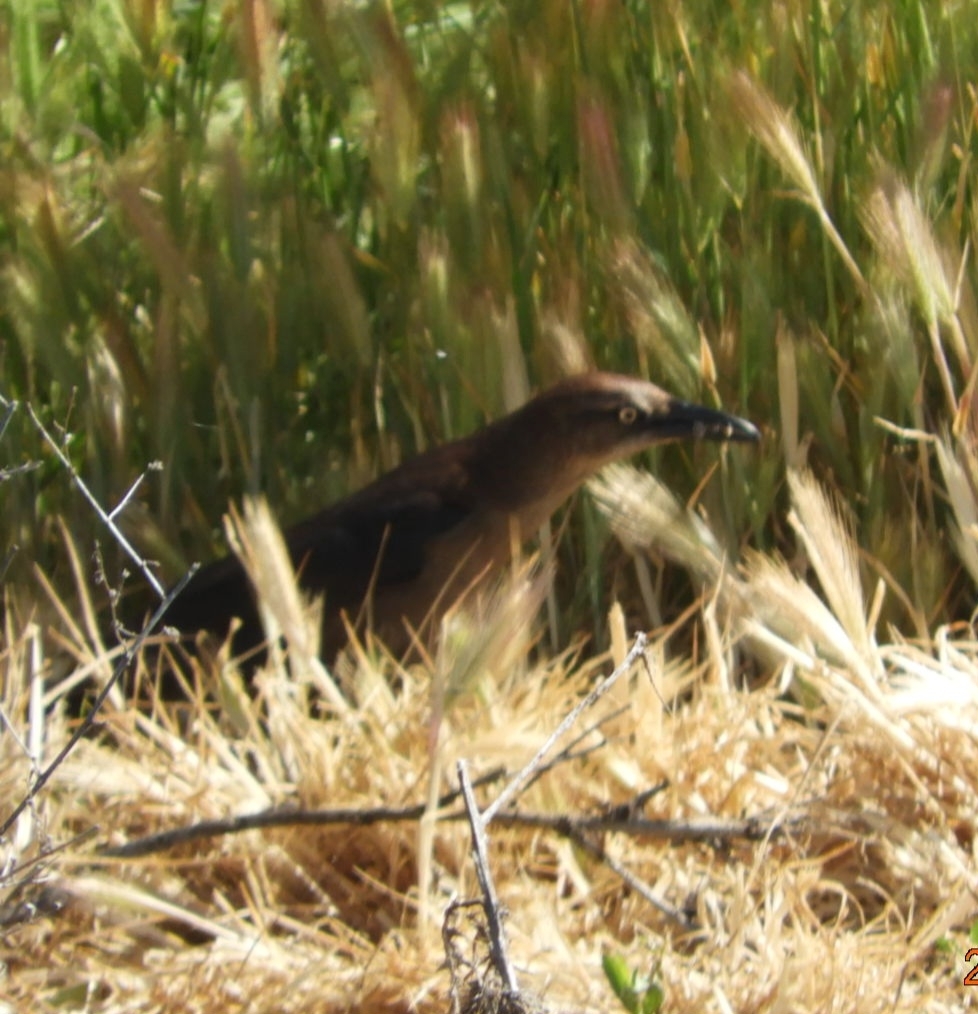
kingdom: Animalia
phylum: Chordata
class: Aves
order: Passeriformes
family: Icteridae
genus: Quiscalus
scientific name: Quiscalus mexicanus
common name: Great-tailed grackle
